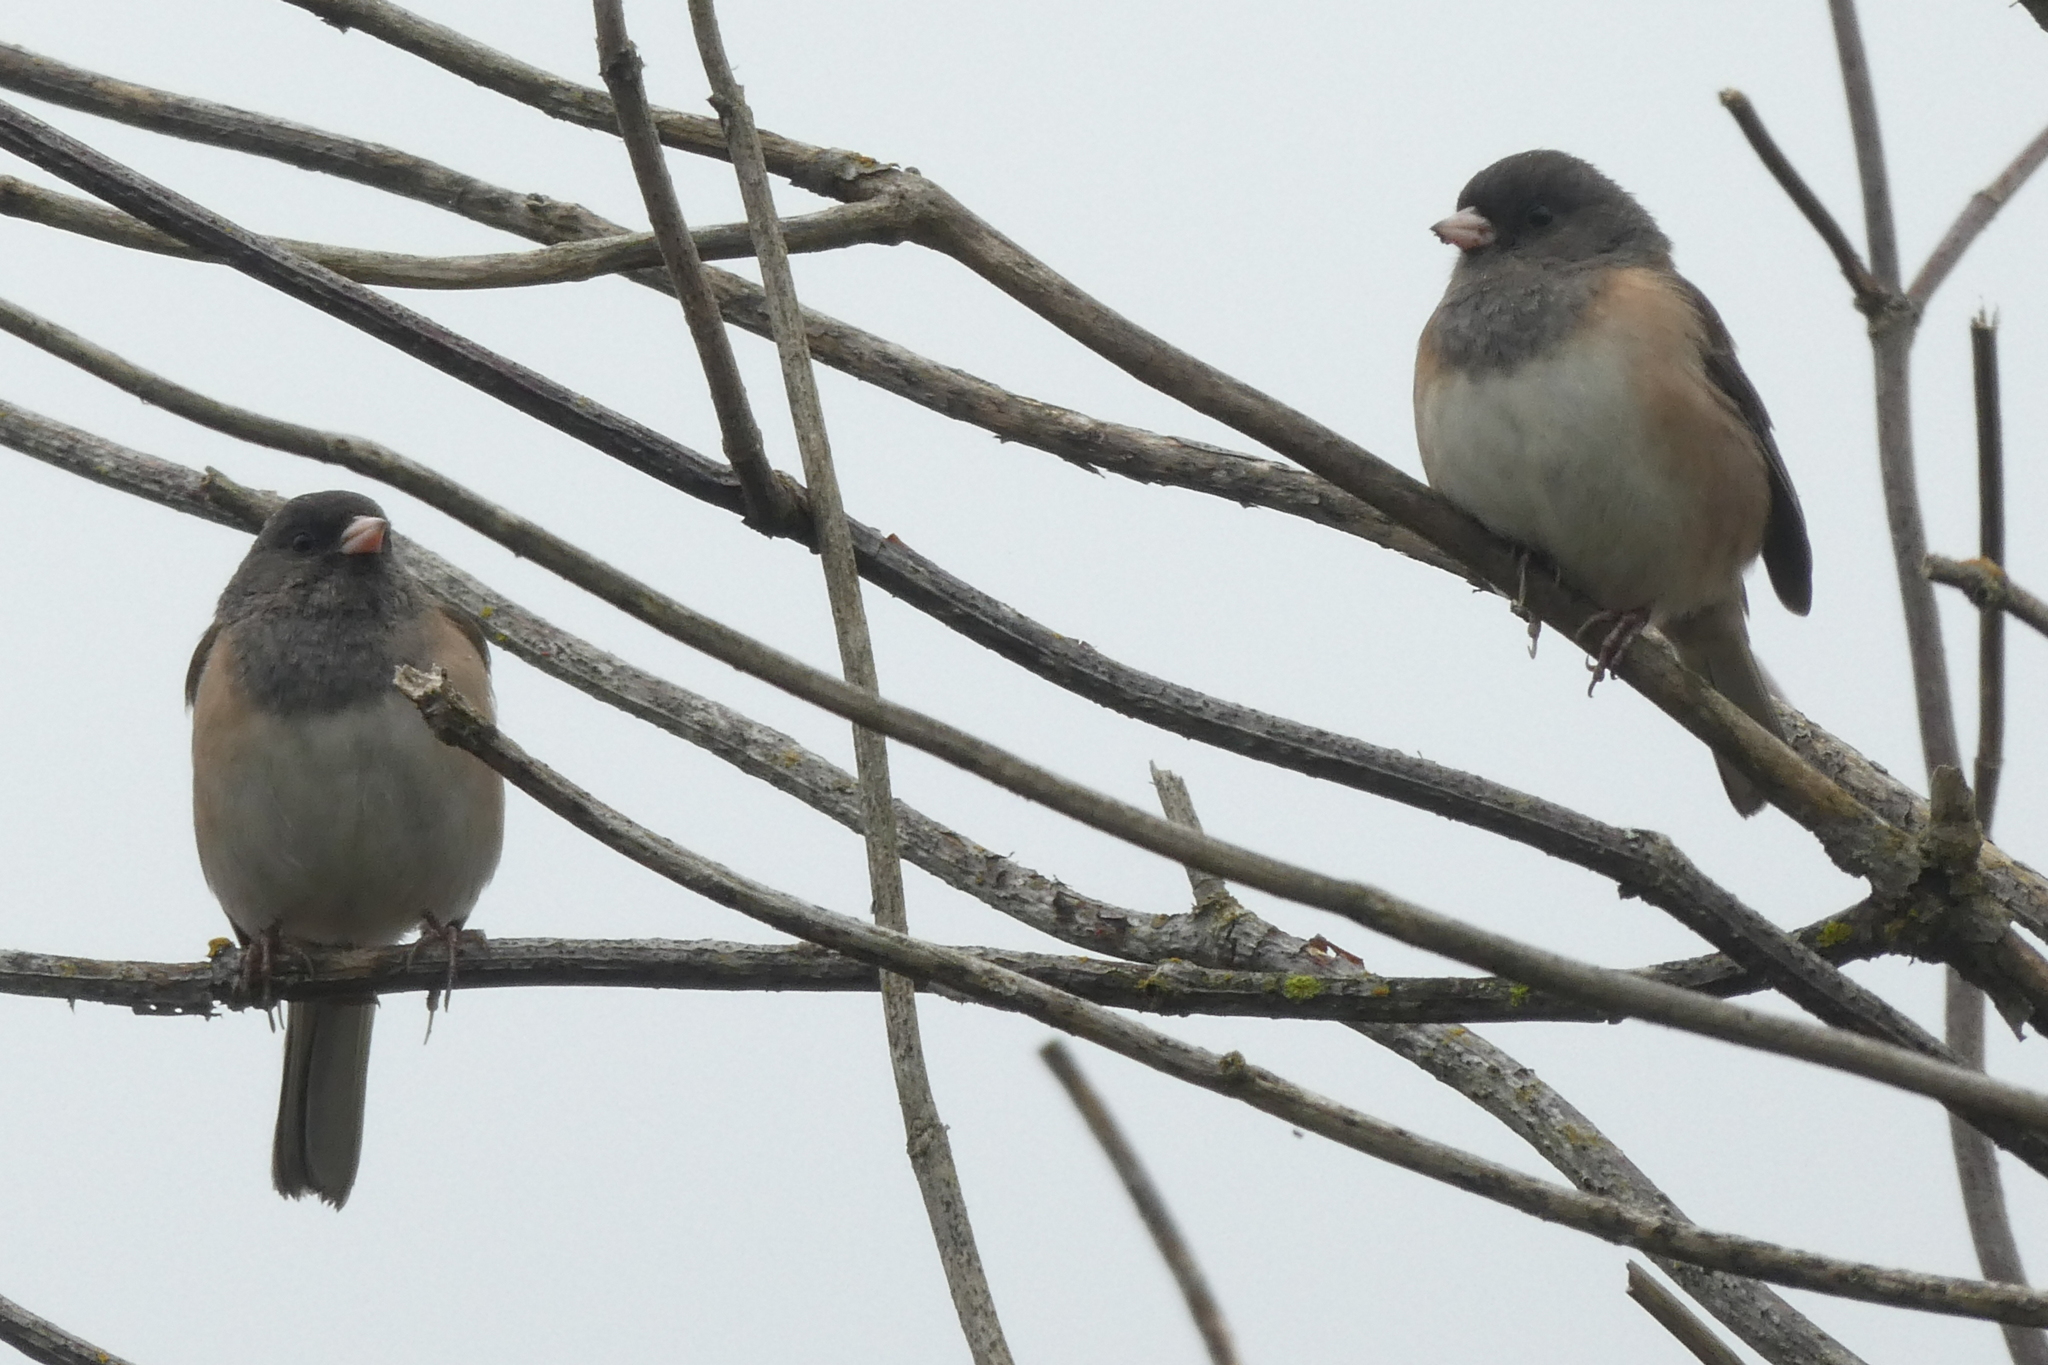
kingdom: Animalia
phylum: Chordata
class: Aves
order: Passeriformes
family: Passerellidae
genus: Junco
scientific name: Junco hyemalis
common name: Dark-eyed junco
